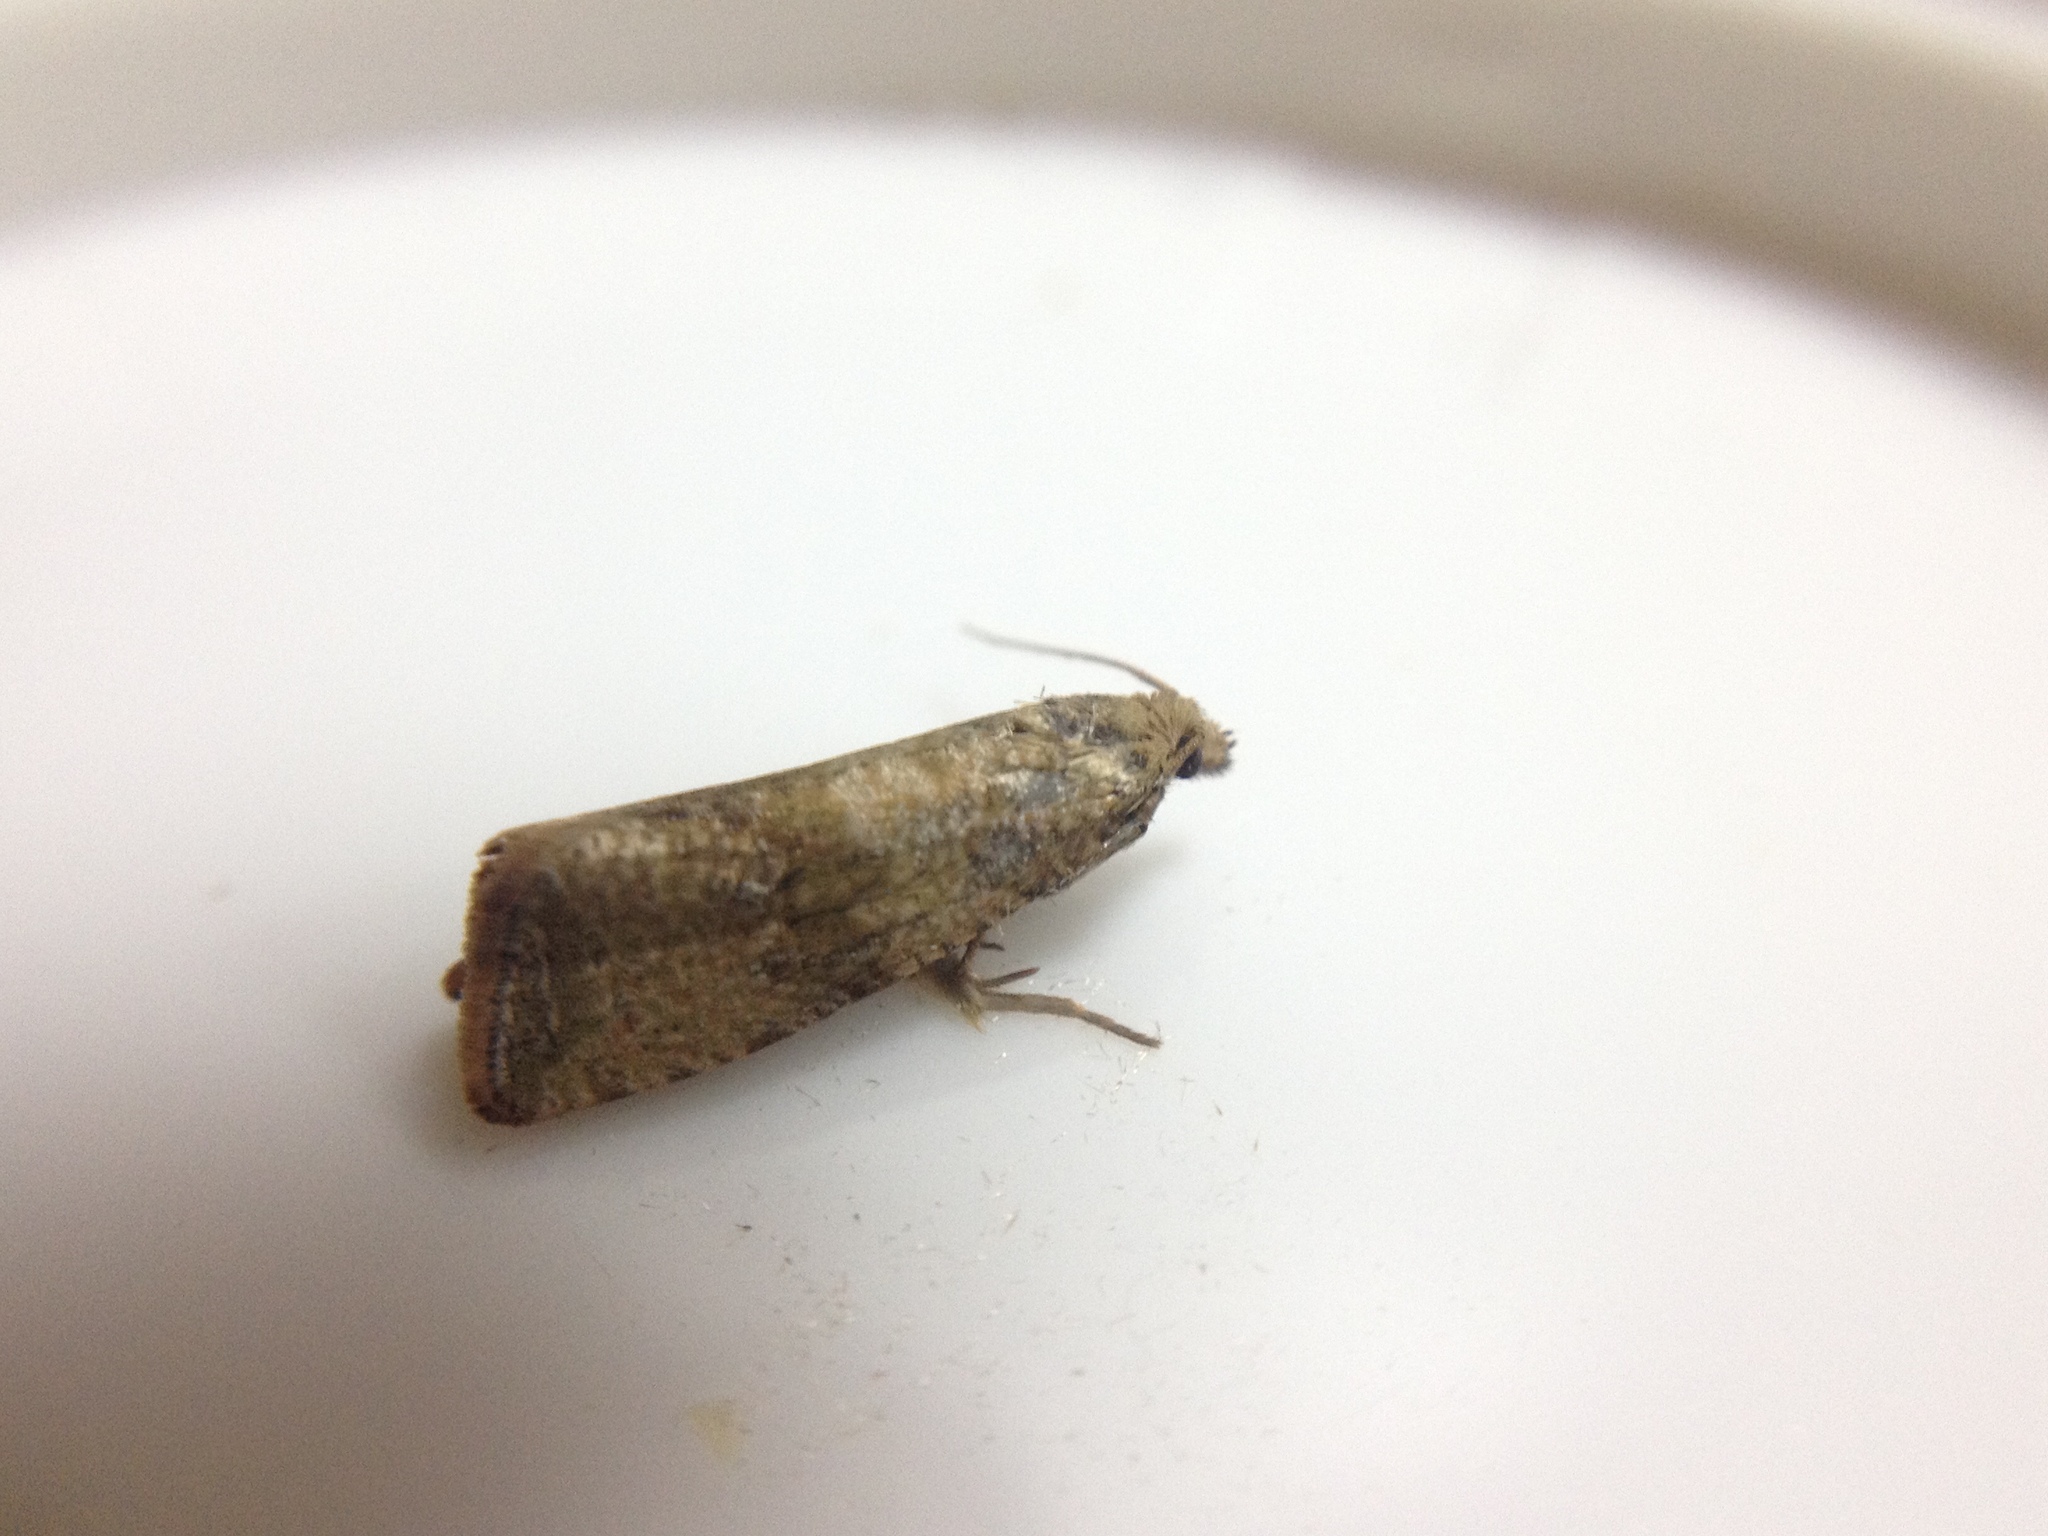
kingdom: Animalia
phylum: Arthropoda
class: Insecta
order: Lepidoptera
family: Tortricidae
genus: Celypha
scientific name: Celypha striana
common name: Barred marble
